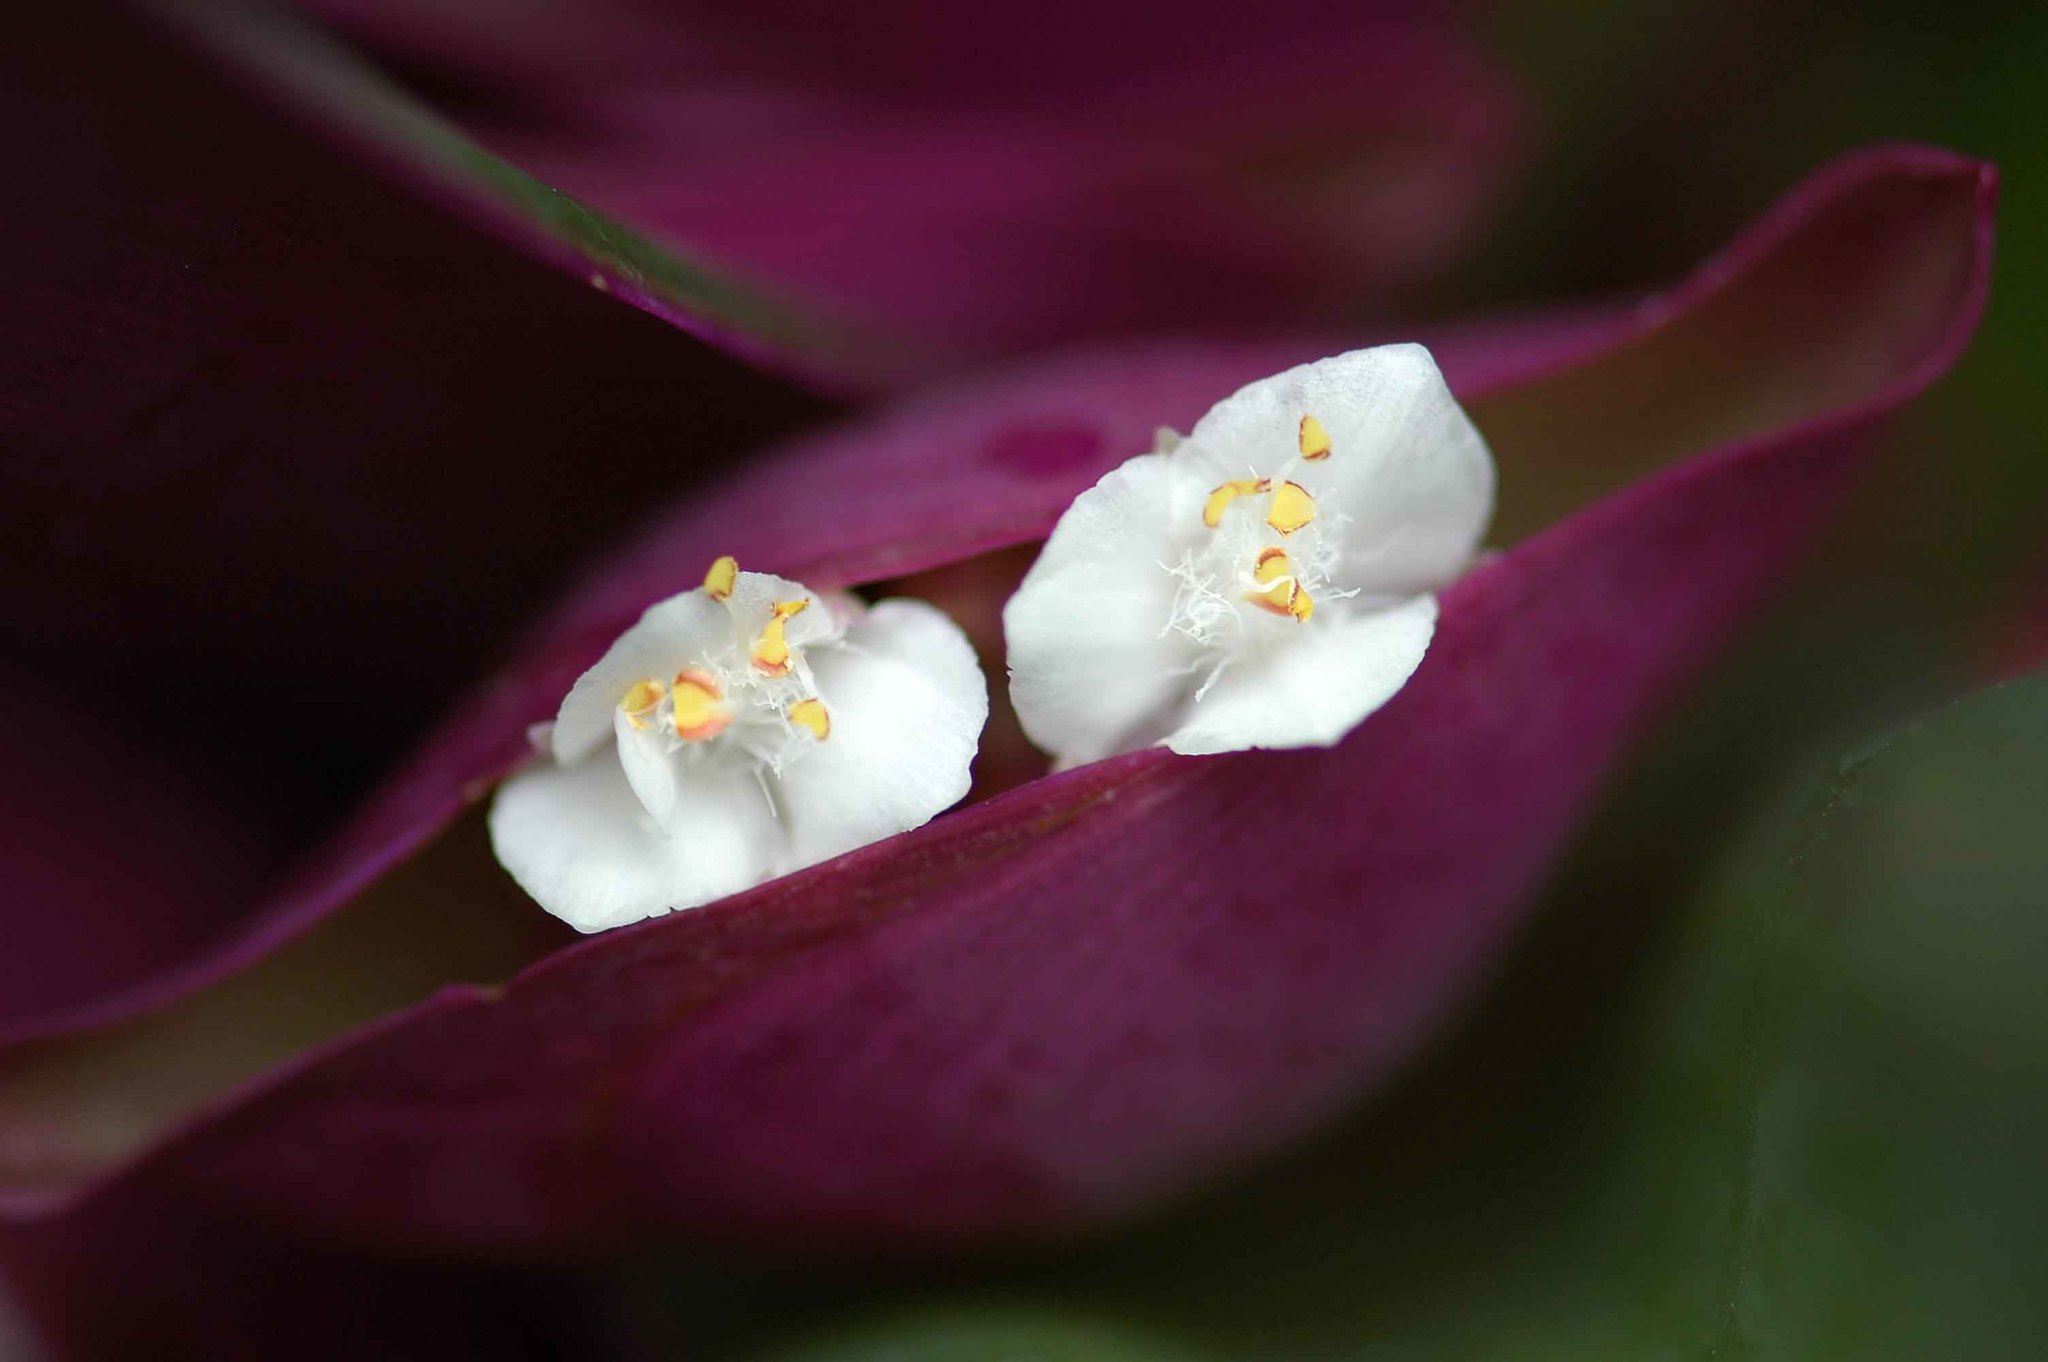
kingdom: Plantae
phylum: Tracheophyta
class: Liliopsida
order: Commelinales
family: Commelinaceae
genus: Tradescantia
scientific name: Tradescantia spathacea
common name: Boatlily
